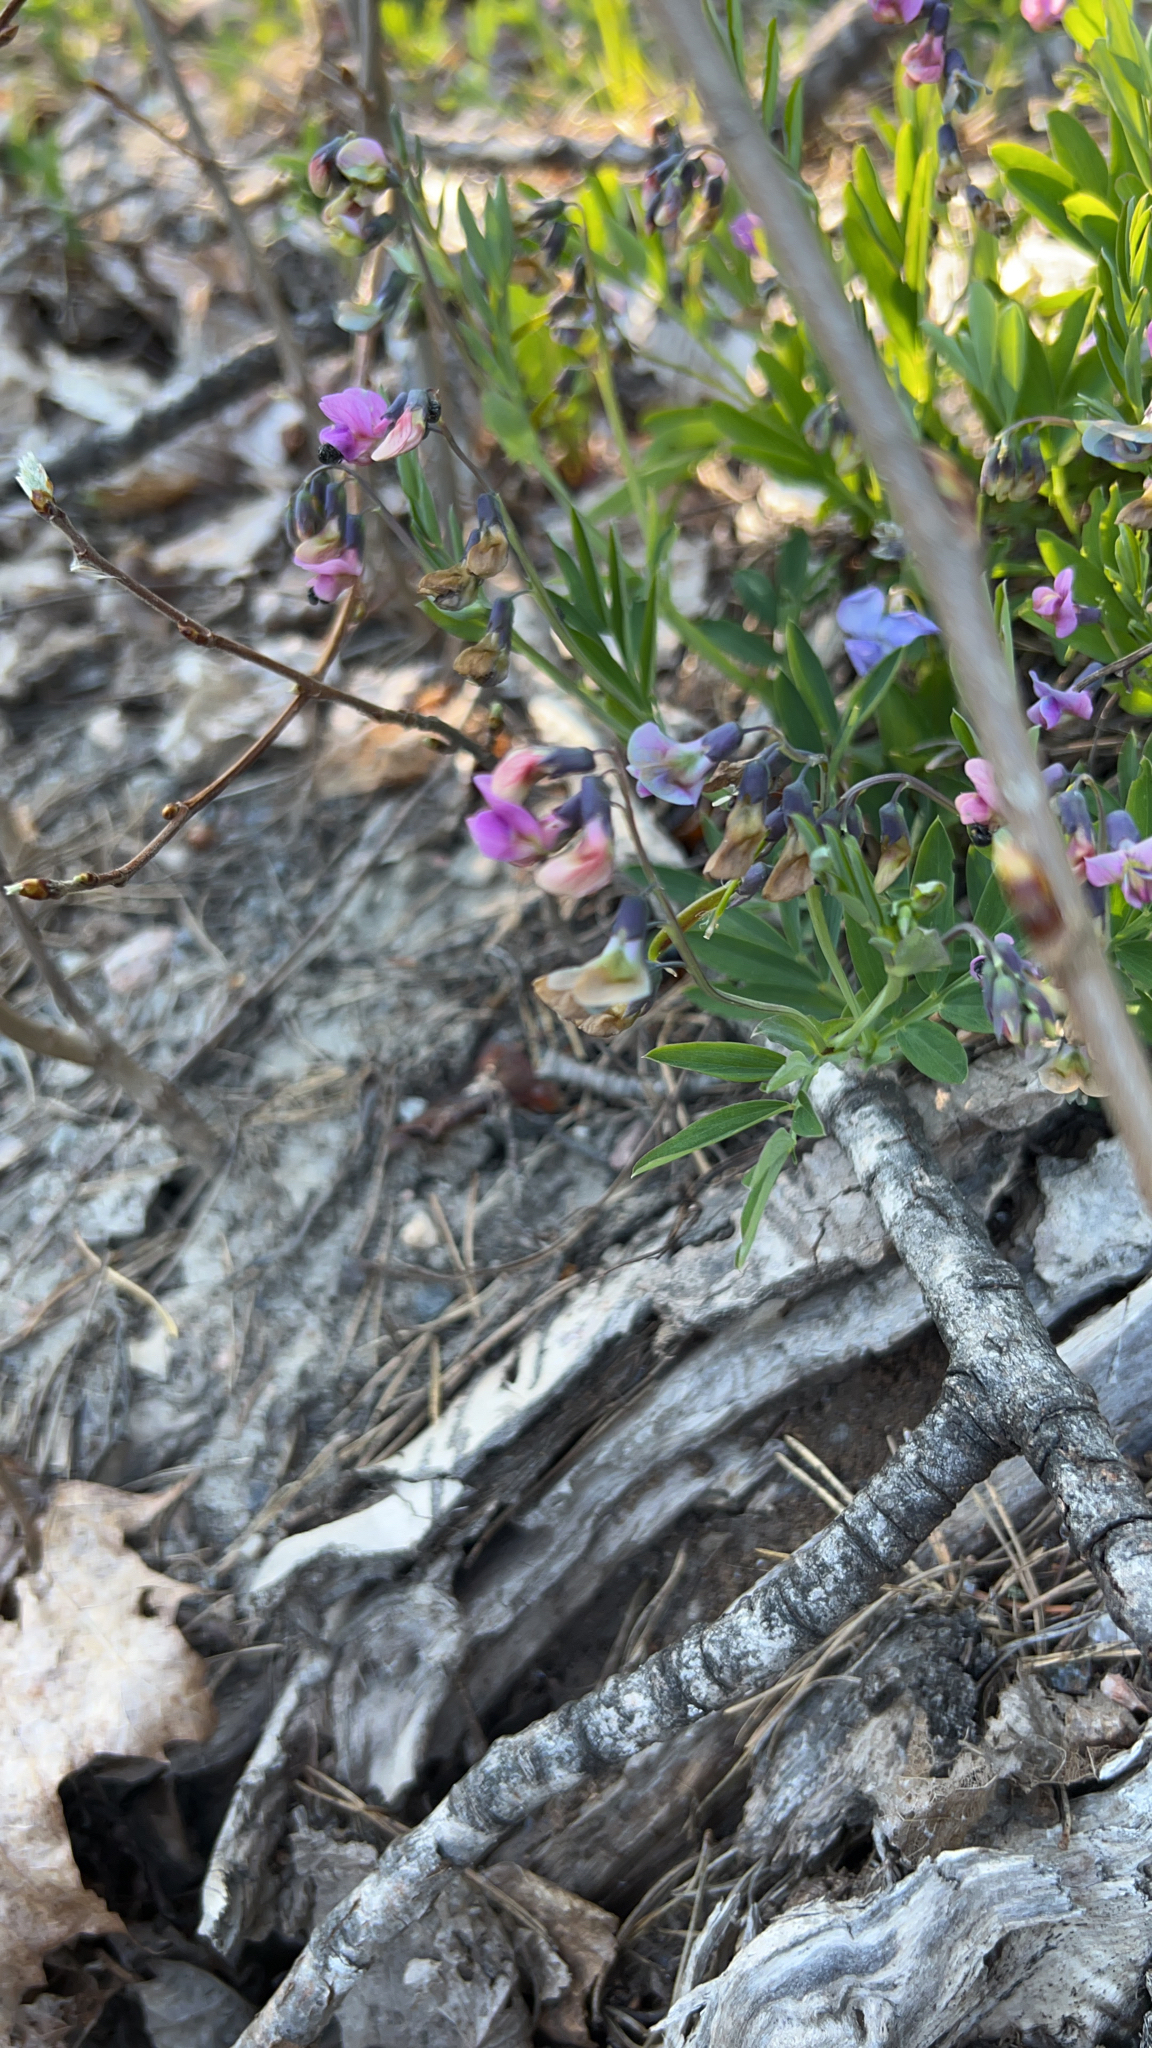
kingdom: Plantae
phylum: Tracheophyta
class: Magnoliopsida
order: Fabales
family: Fabaceae
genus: Lathyrus
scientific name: Lathyrus linifolius
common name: Bitter-vetch
